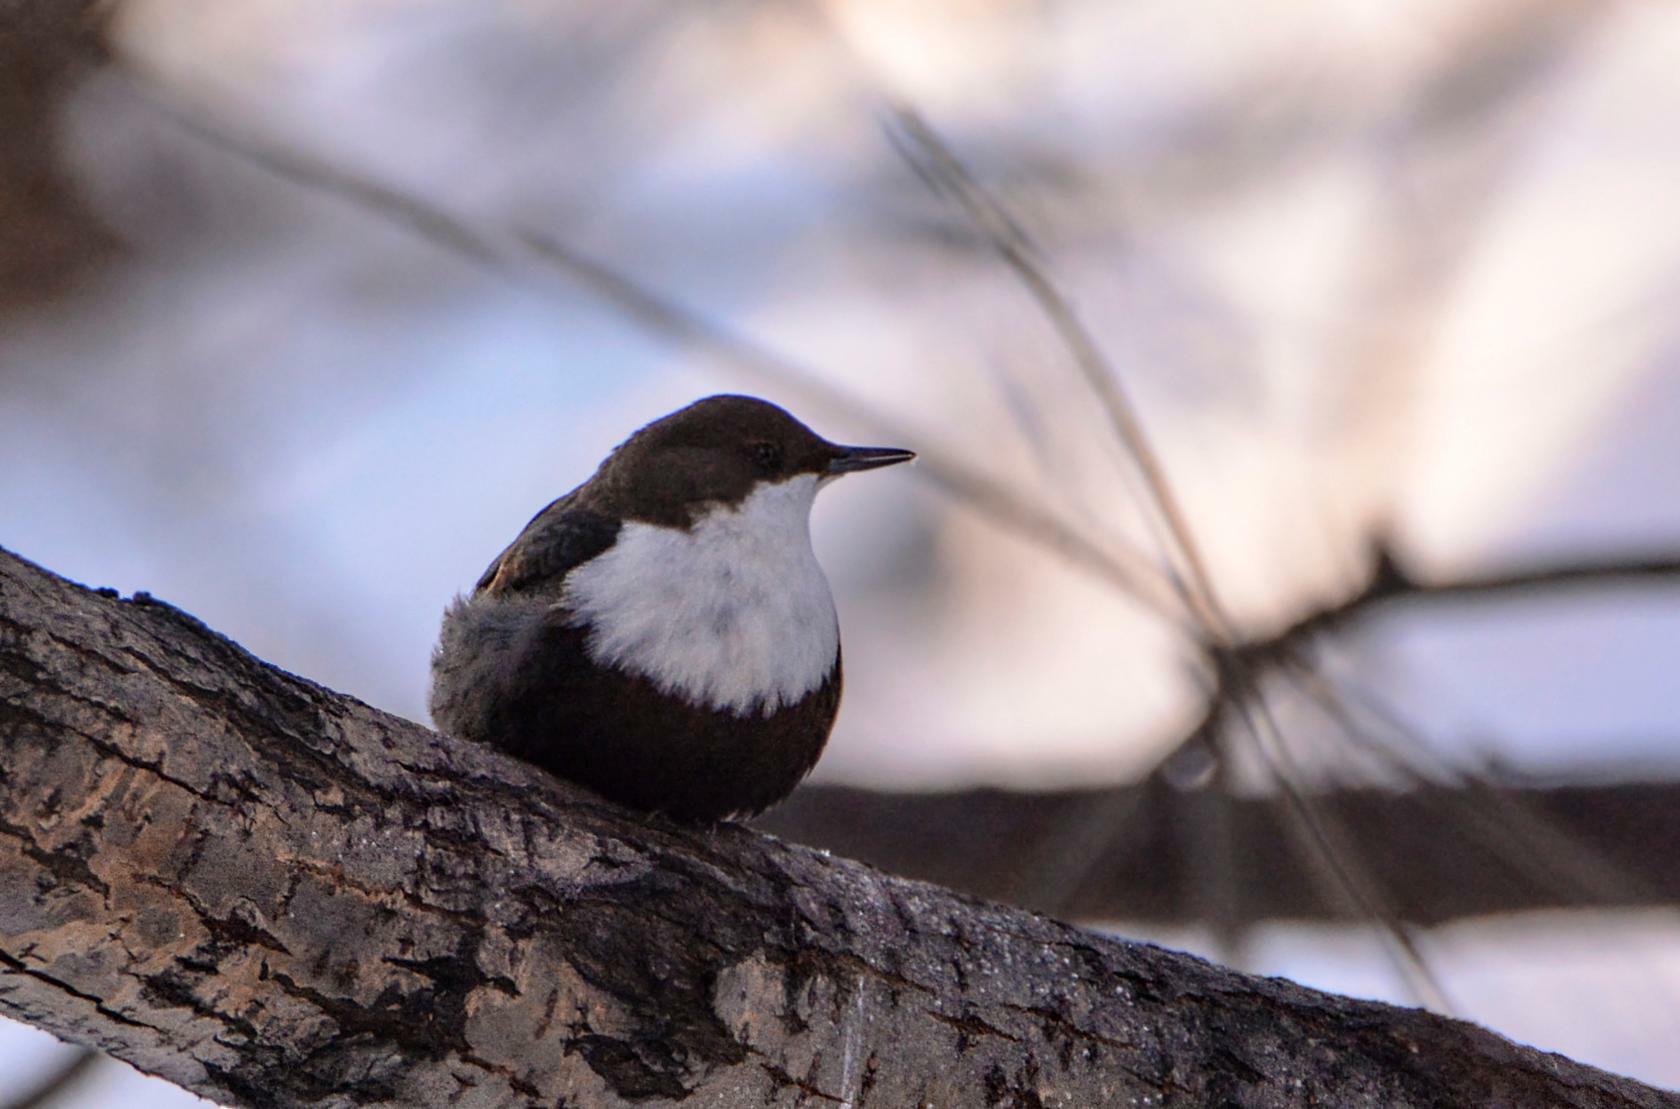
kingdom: Animalia
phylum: Chordata
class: Aves
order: Passeriformes
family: Cinclidae
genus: Cinclus
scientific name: Cinclus cinclus
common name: White-throated dipper
